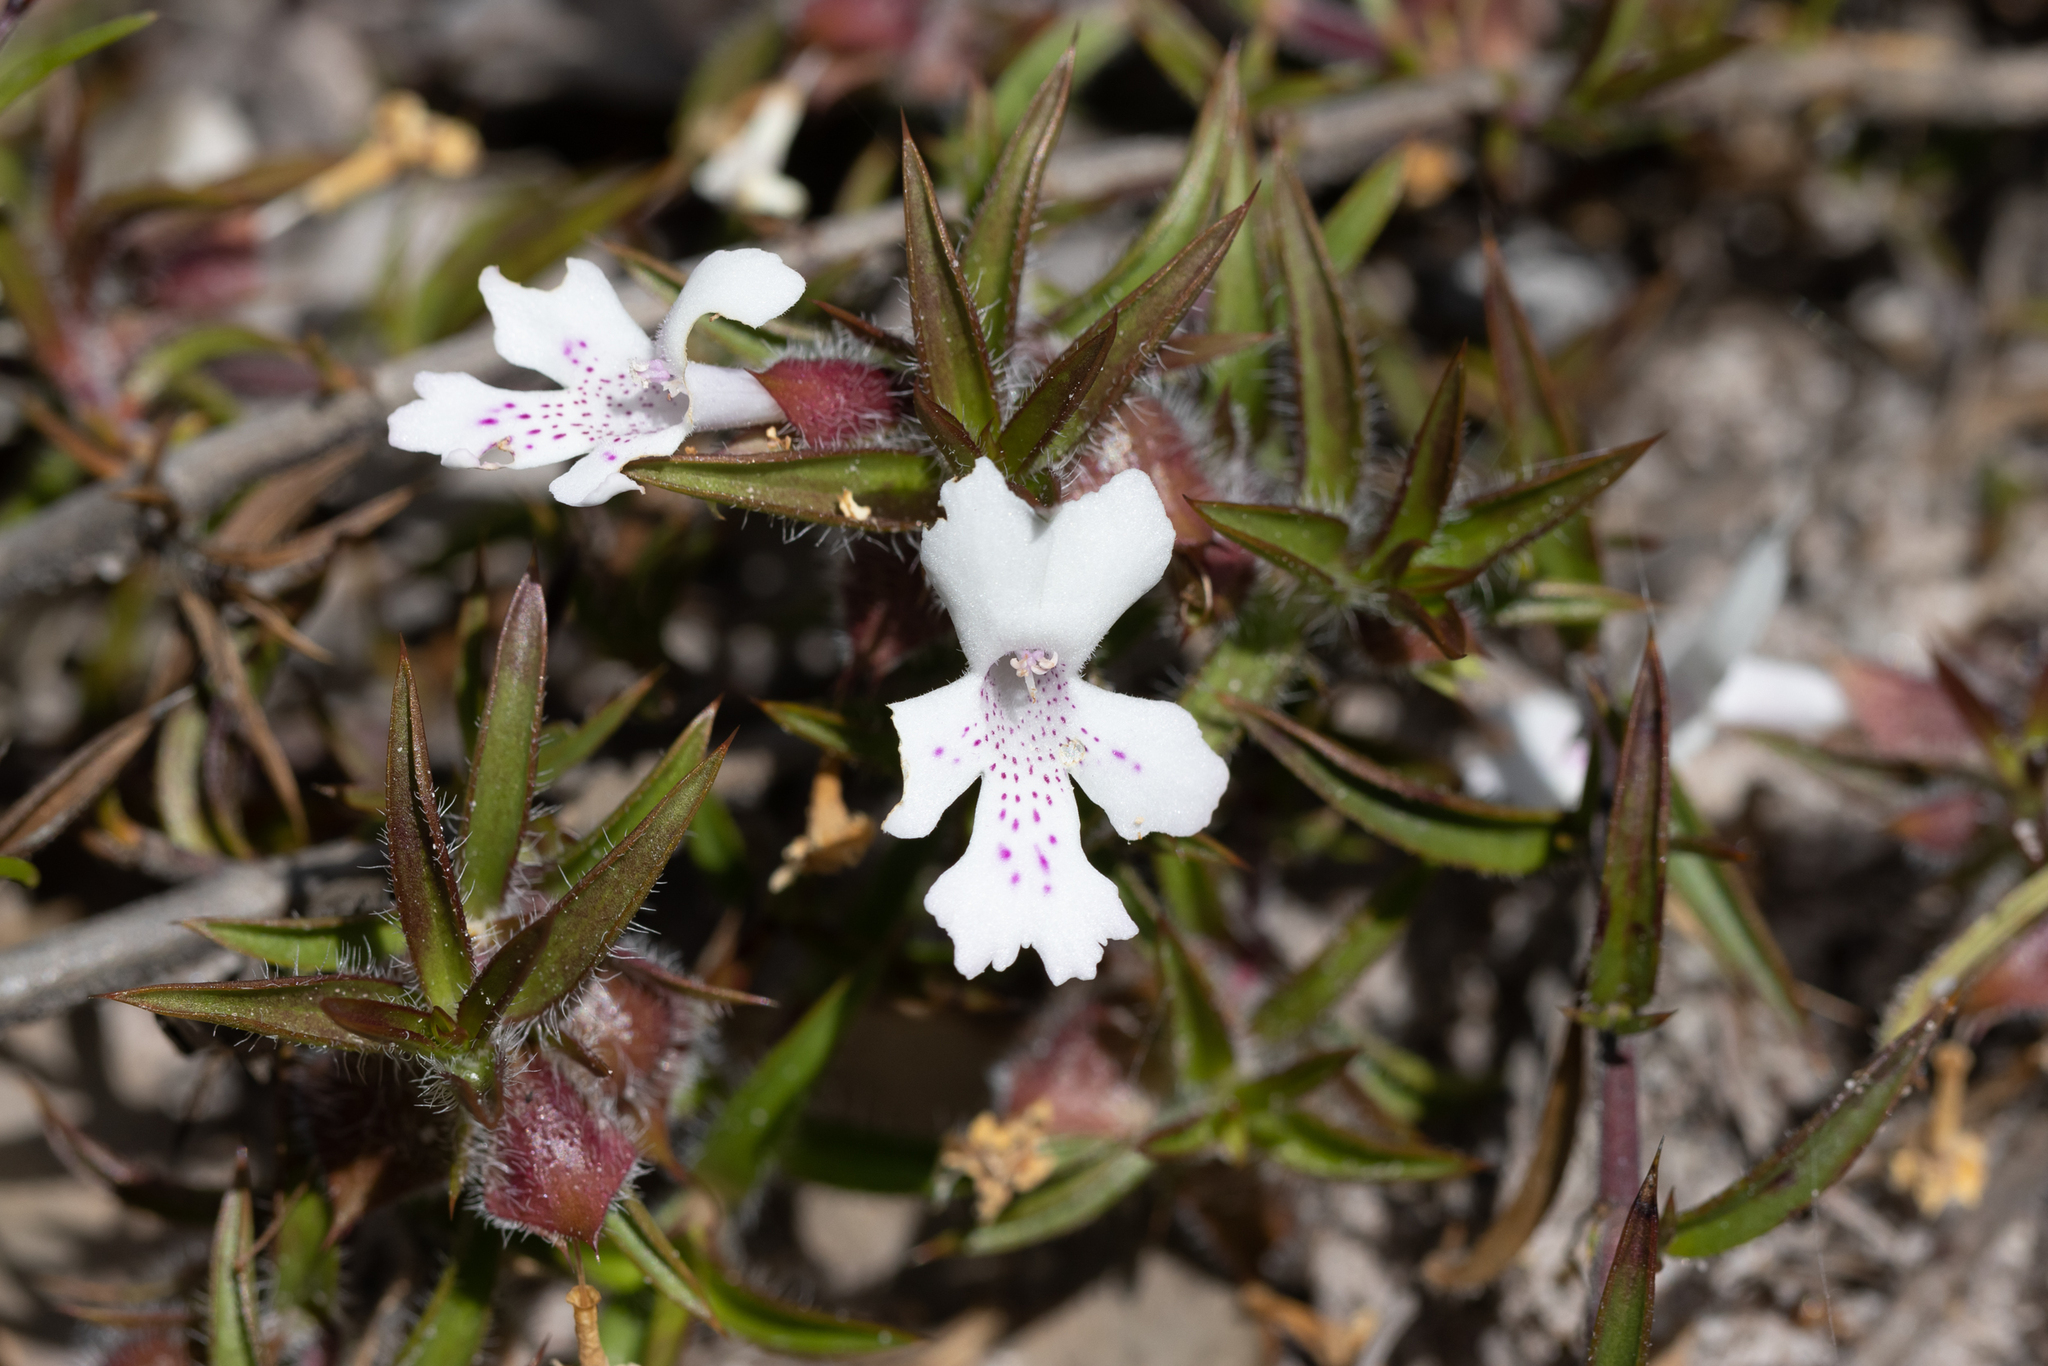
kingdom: Plantae
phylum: Tracheophyta
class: Magnoliopsida
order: Lamiales
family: Lamiaceae
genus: Hemiandra
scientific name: Hemiandra pungens
